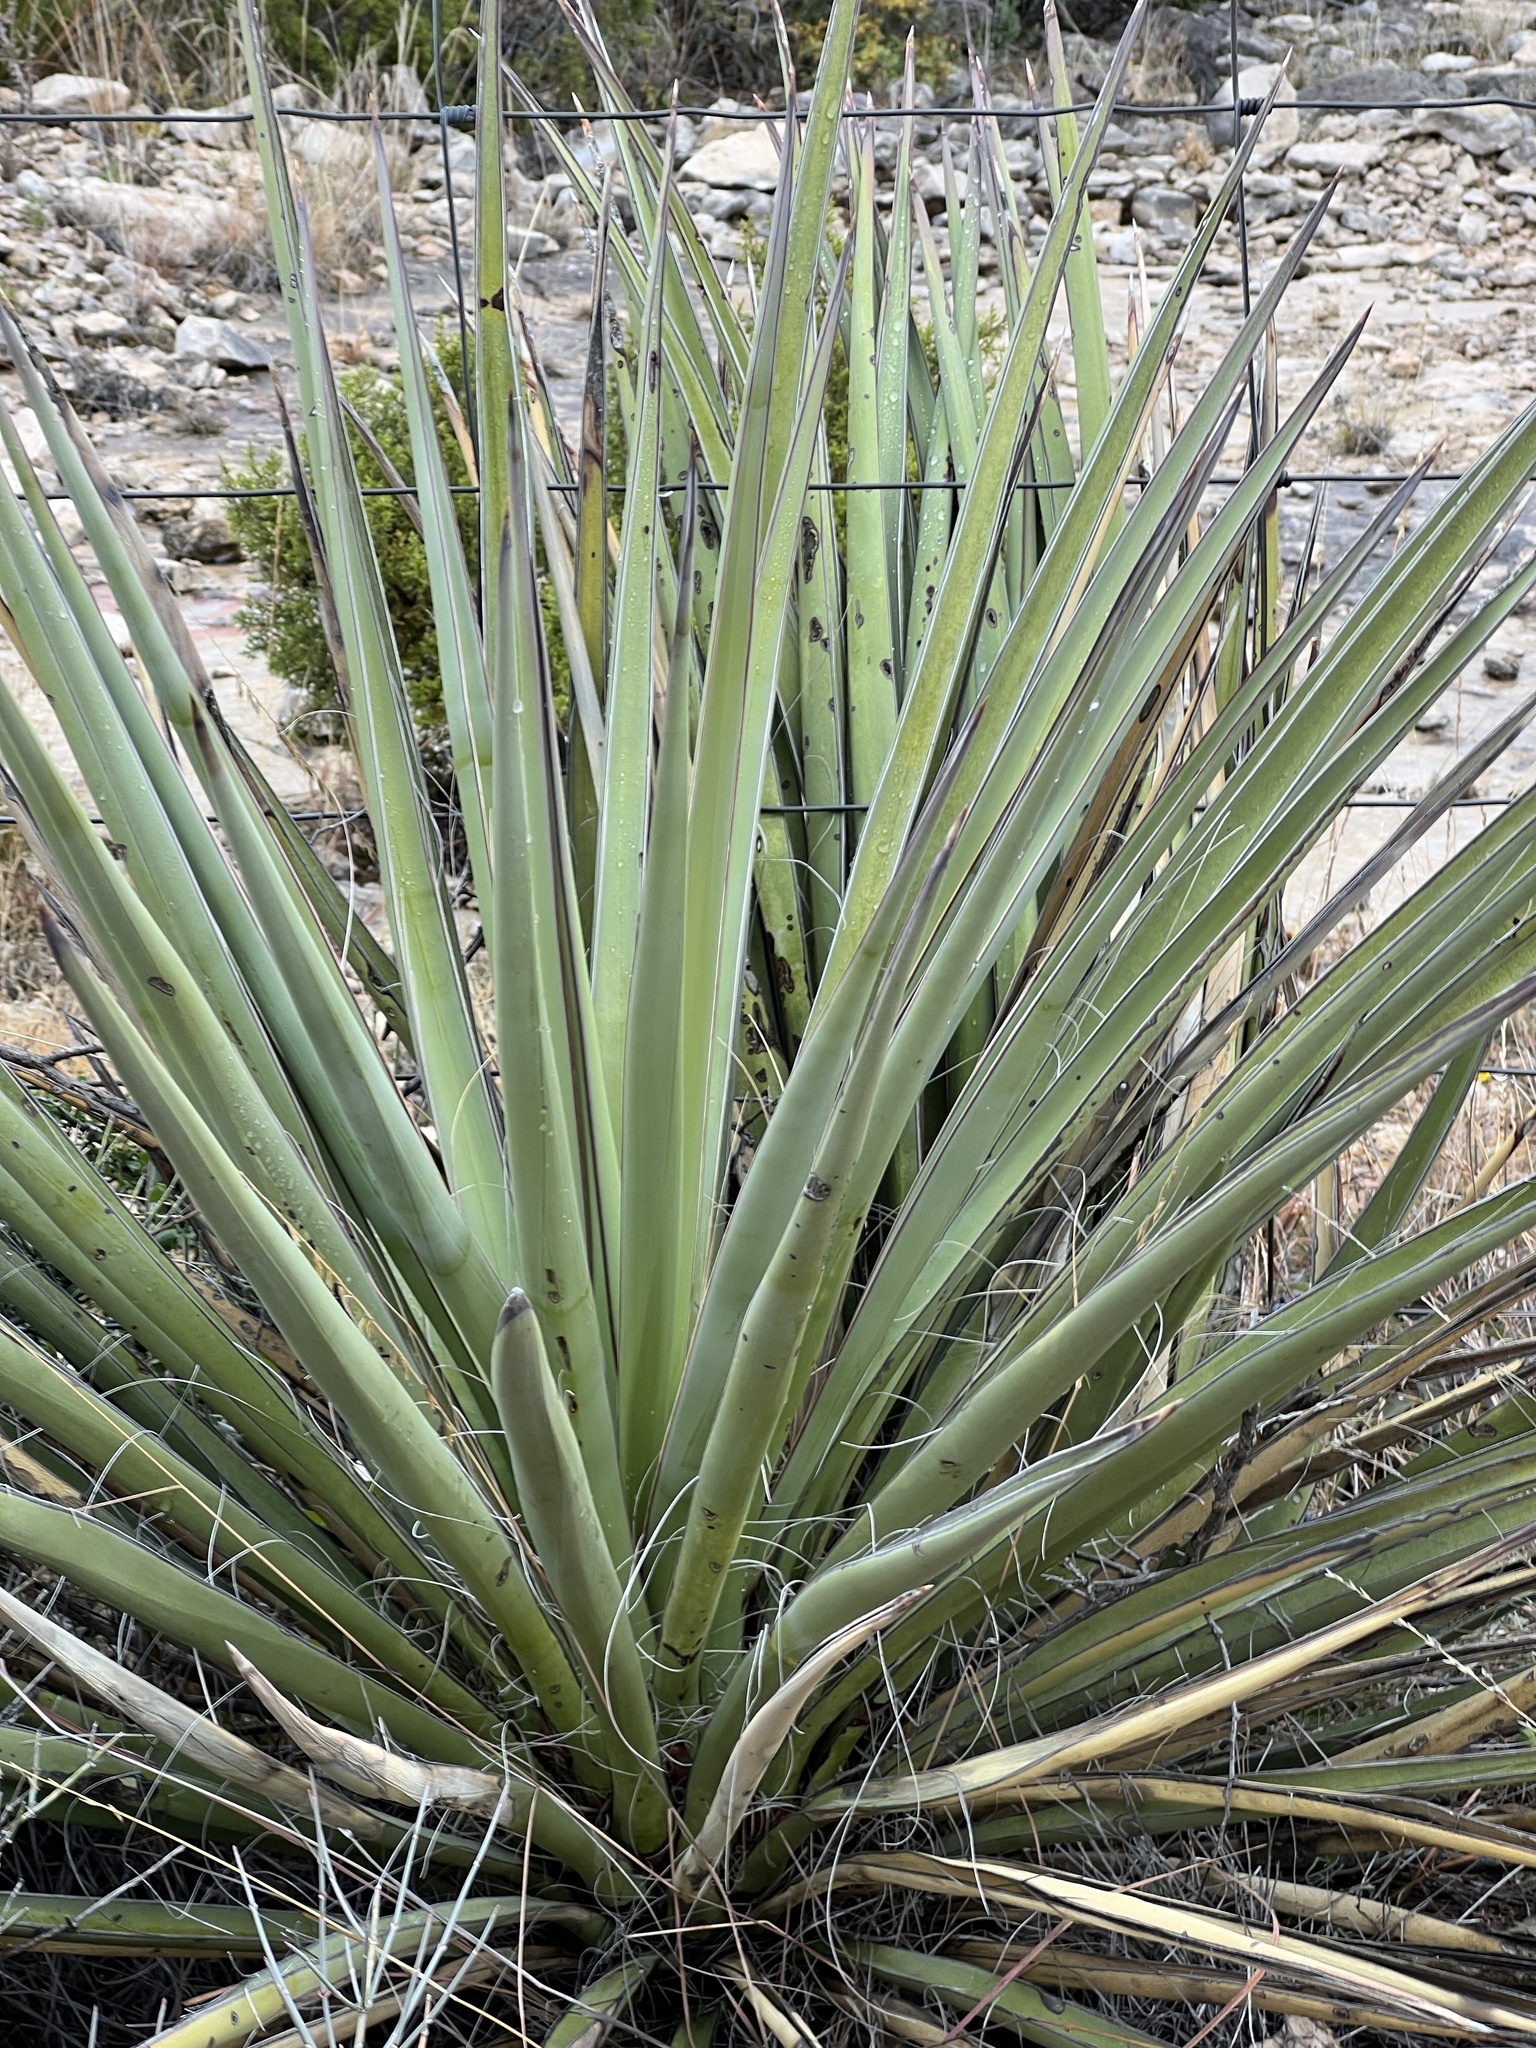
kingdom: Plantae
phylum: Tracheophyta
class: Liliopsida
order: Asparagales
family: Asparagaceae
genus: Yucca
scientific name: Yucca treculiana
